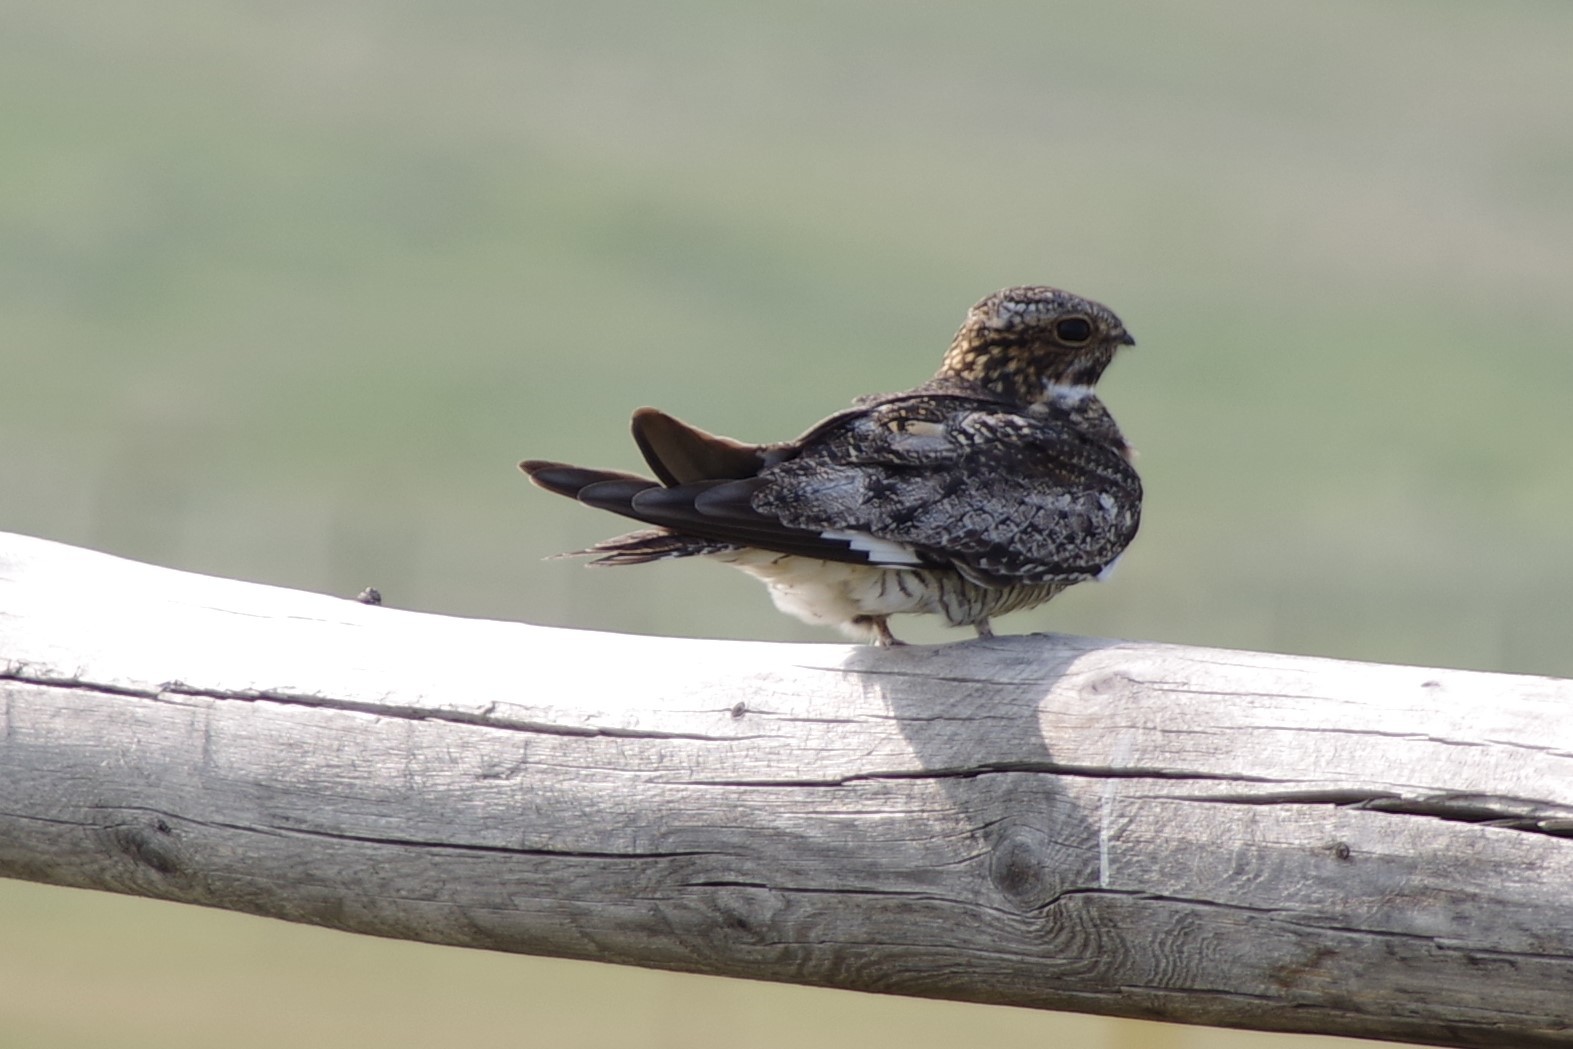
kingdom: Animalia
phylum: Chordata
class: Aves
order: Caprimulgiformes
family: Caprimulgidae
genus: Chordeiles
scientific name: Chordeiles minor
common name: Common nighthawk
